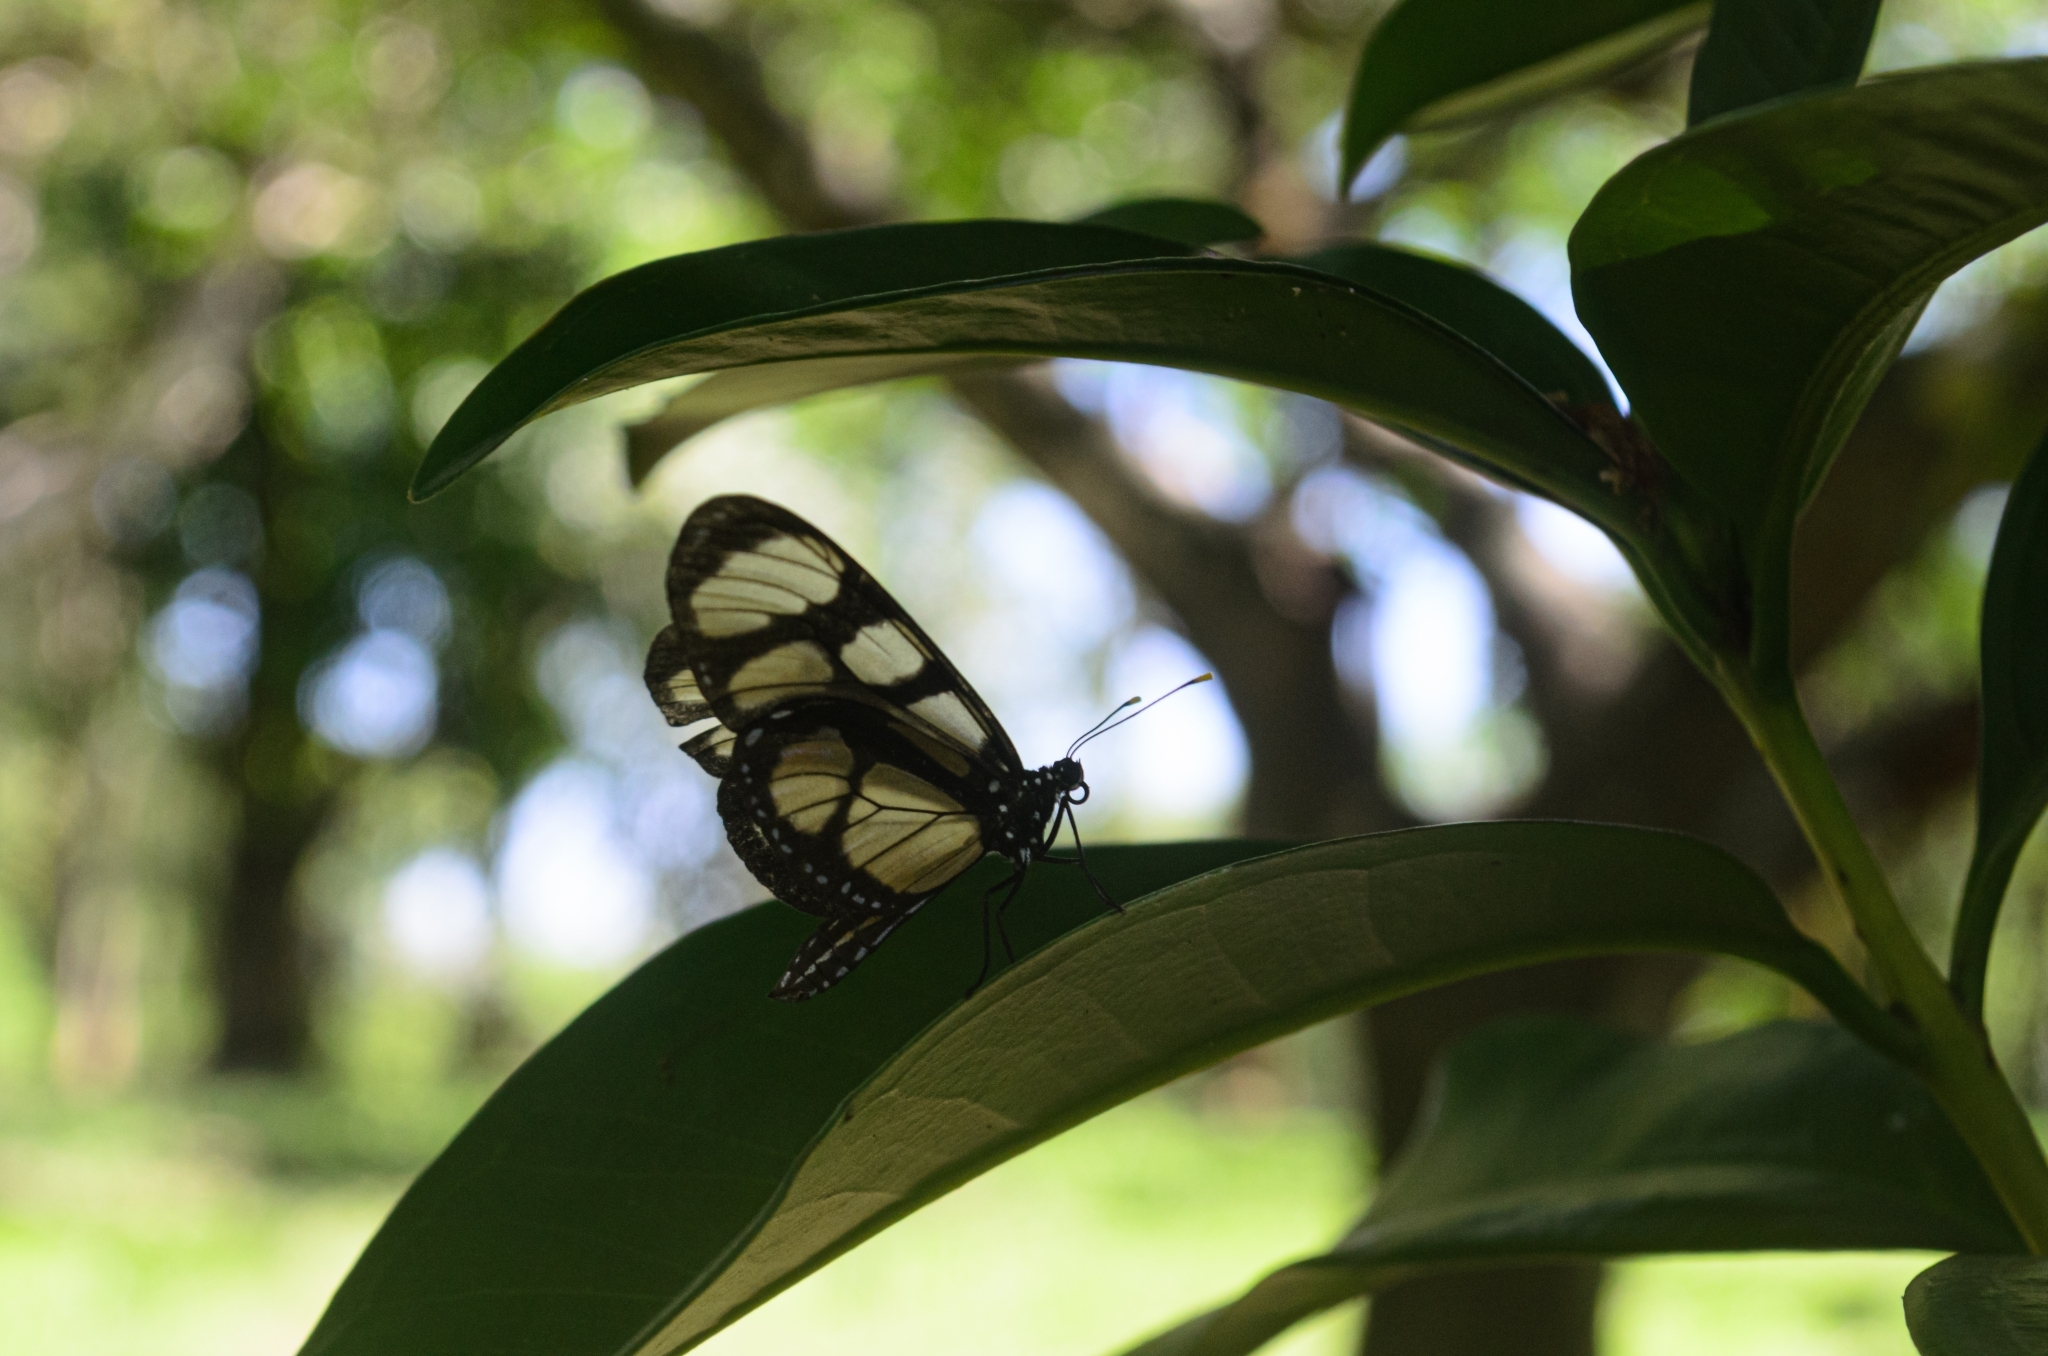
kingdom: Animalia
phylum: Arthropoda
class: Insecta
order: Lepidoptera
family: Nymphalidae
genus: Thyridia
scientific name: Thyridia psidii
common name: Melantho tigerwing
